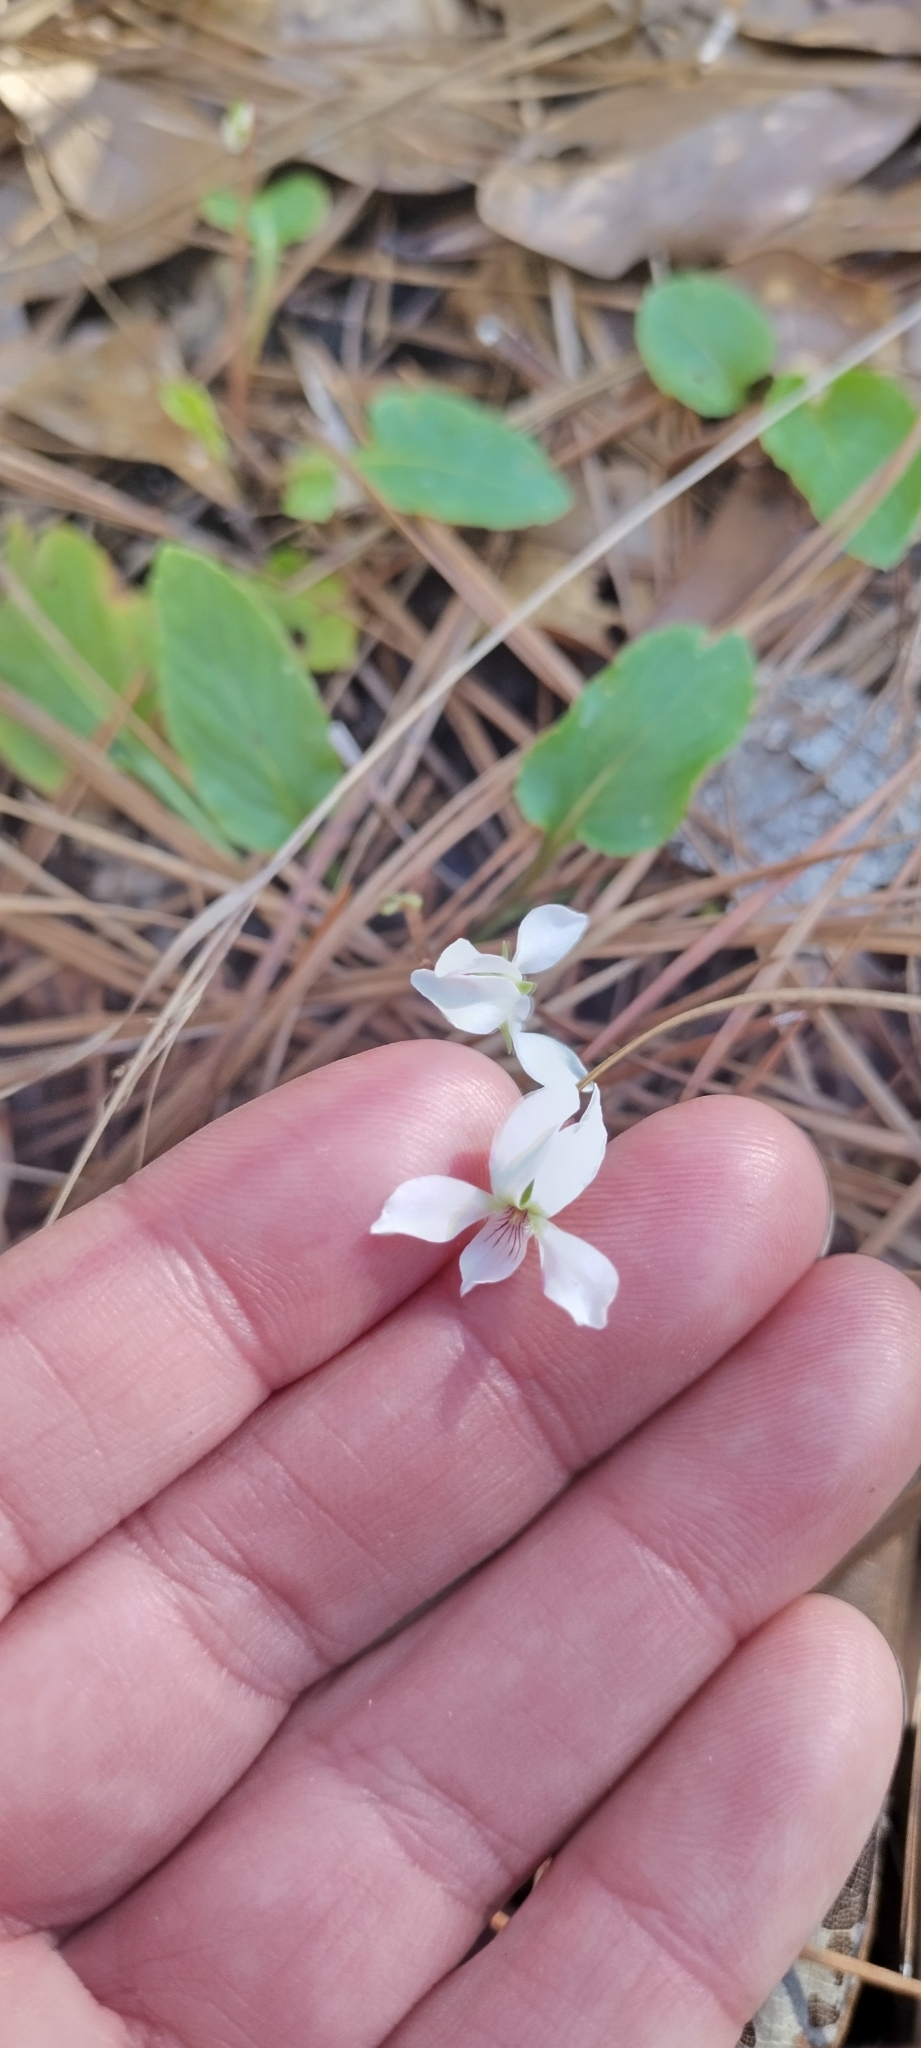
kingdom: Plantae
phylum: Tracheophyta
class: Magnoliopsida
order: Malpighiales
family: Violaceae
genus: Viola
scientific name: Viola primulifolia
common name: Primrose-leaf violet
